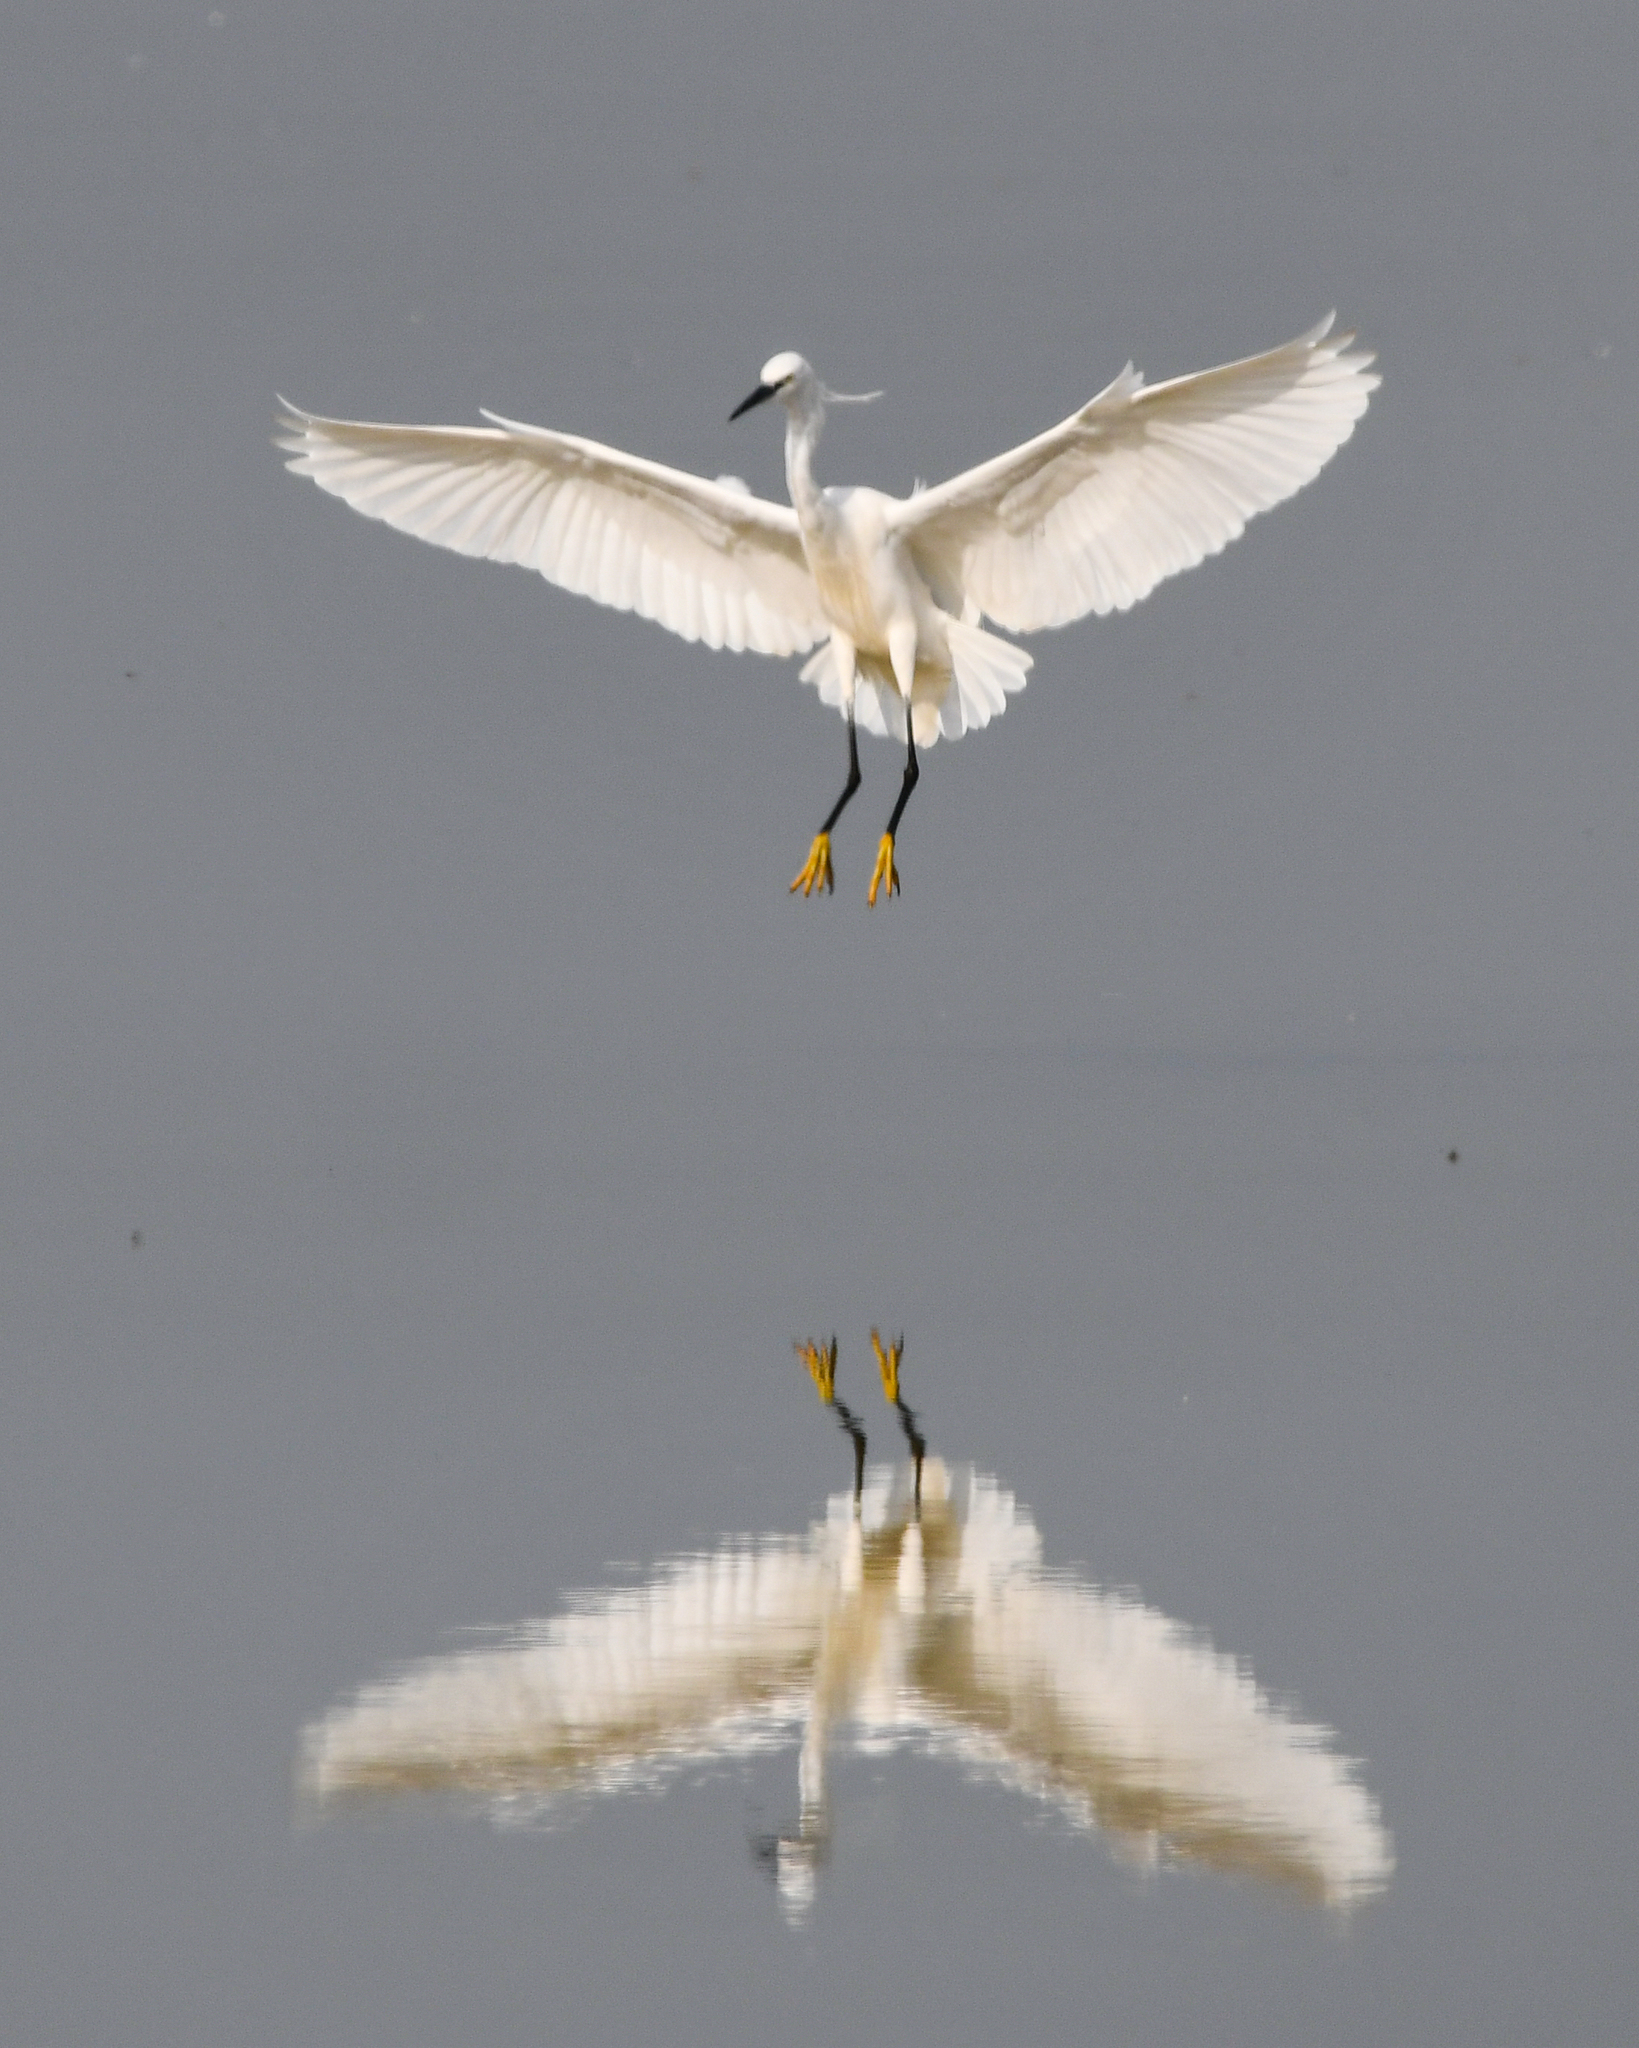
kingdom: Animalia
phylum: Chordata
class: Aves
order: Pelecaniformes
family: Ardeidae
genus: Egretta
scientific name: Egretta garzetta
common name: Little egret
